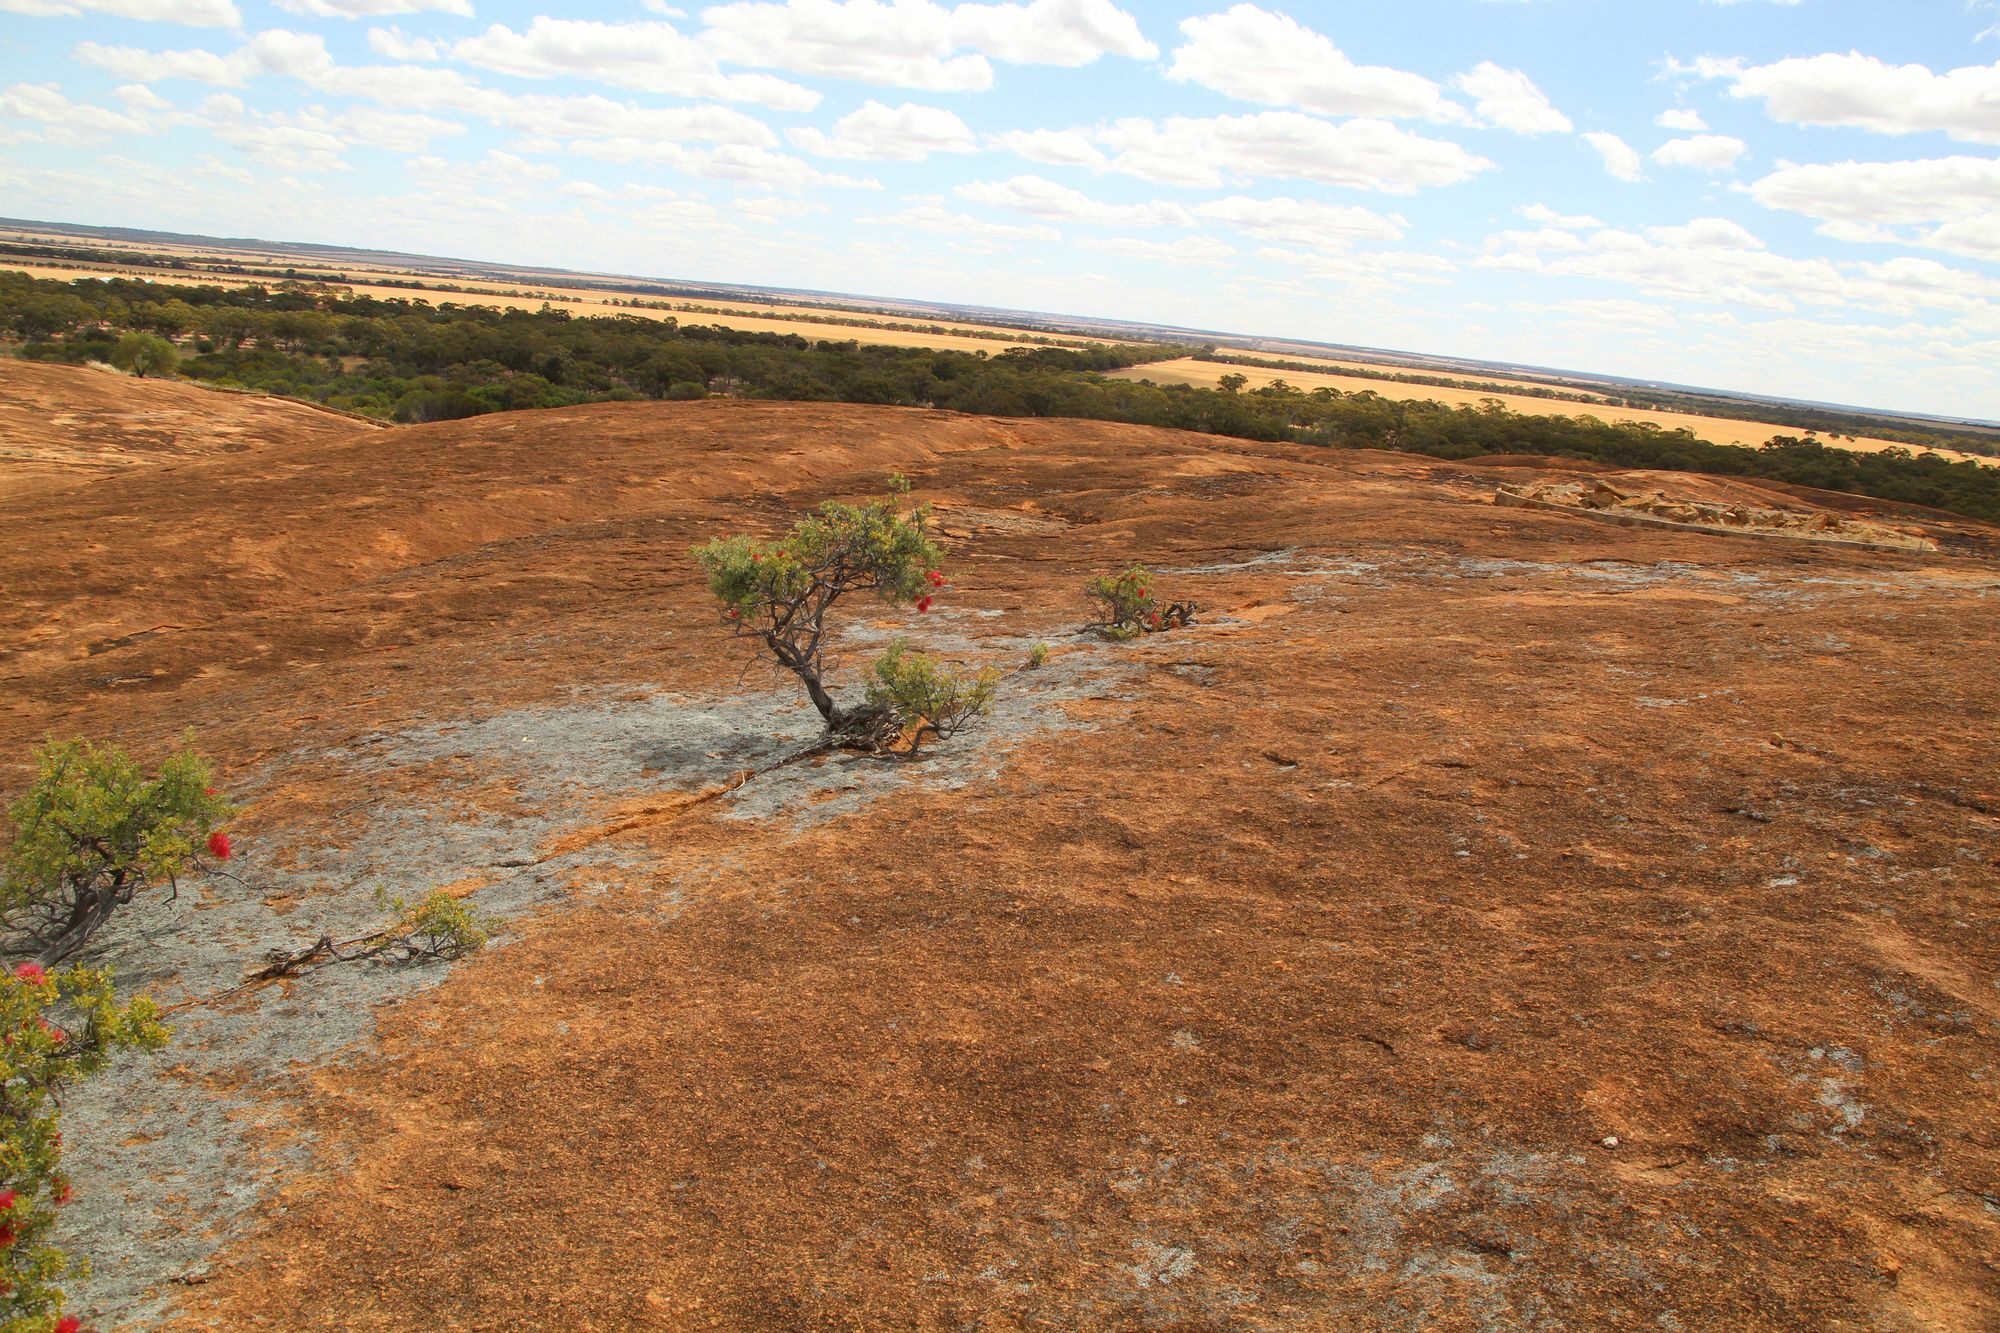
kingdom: Plantae
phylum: Tracheophyta
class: Magnoliopsida
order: Myrtales
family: Myrtaceae
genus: Kunzea
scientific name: Kunzea pulchella
